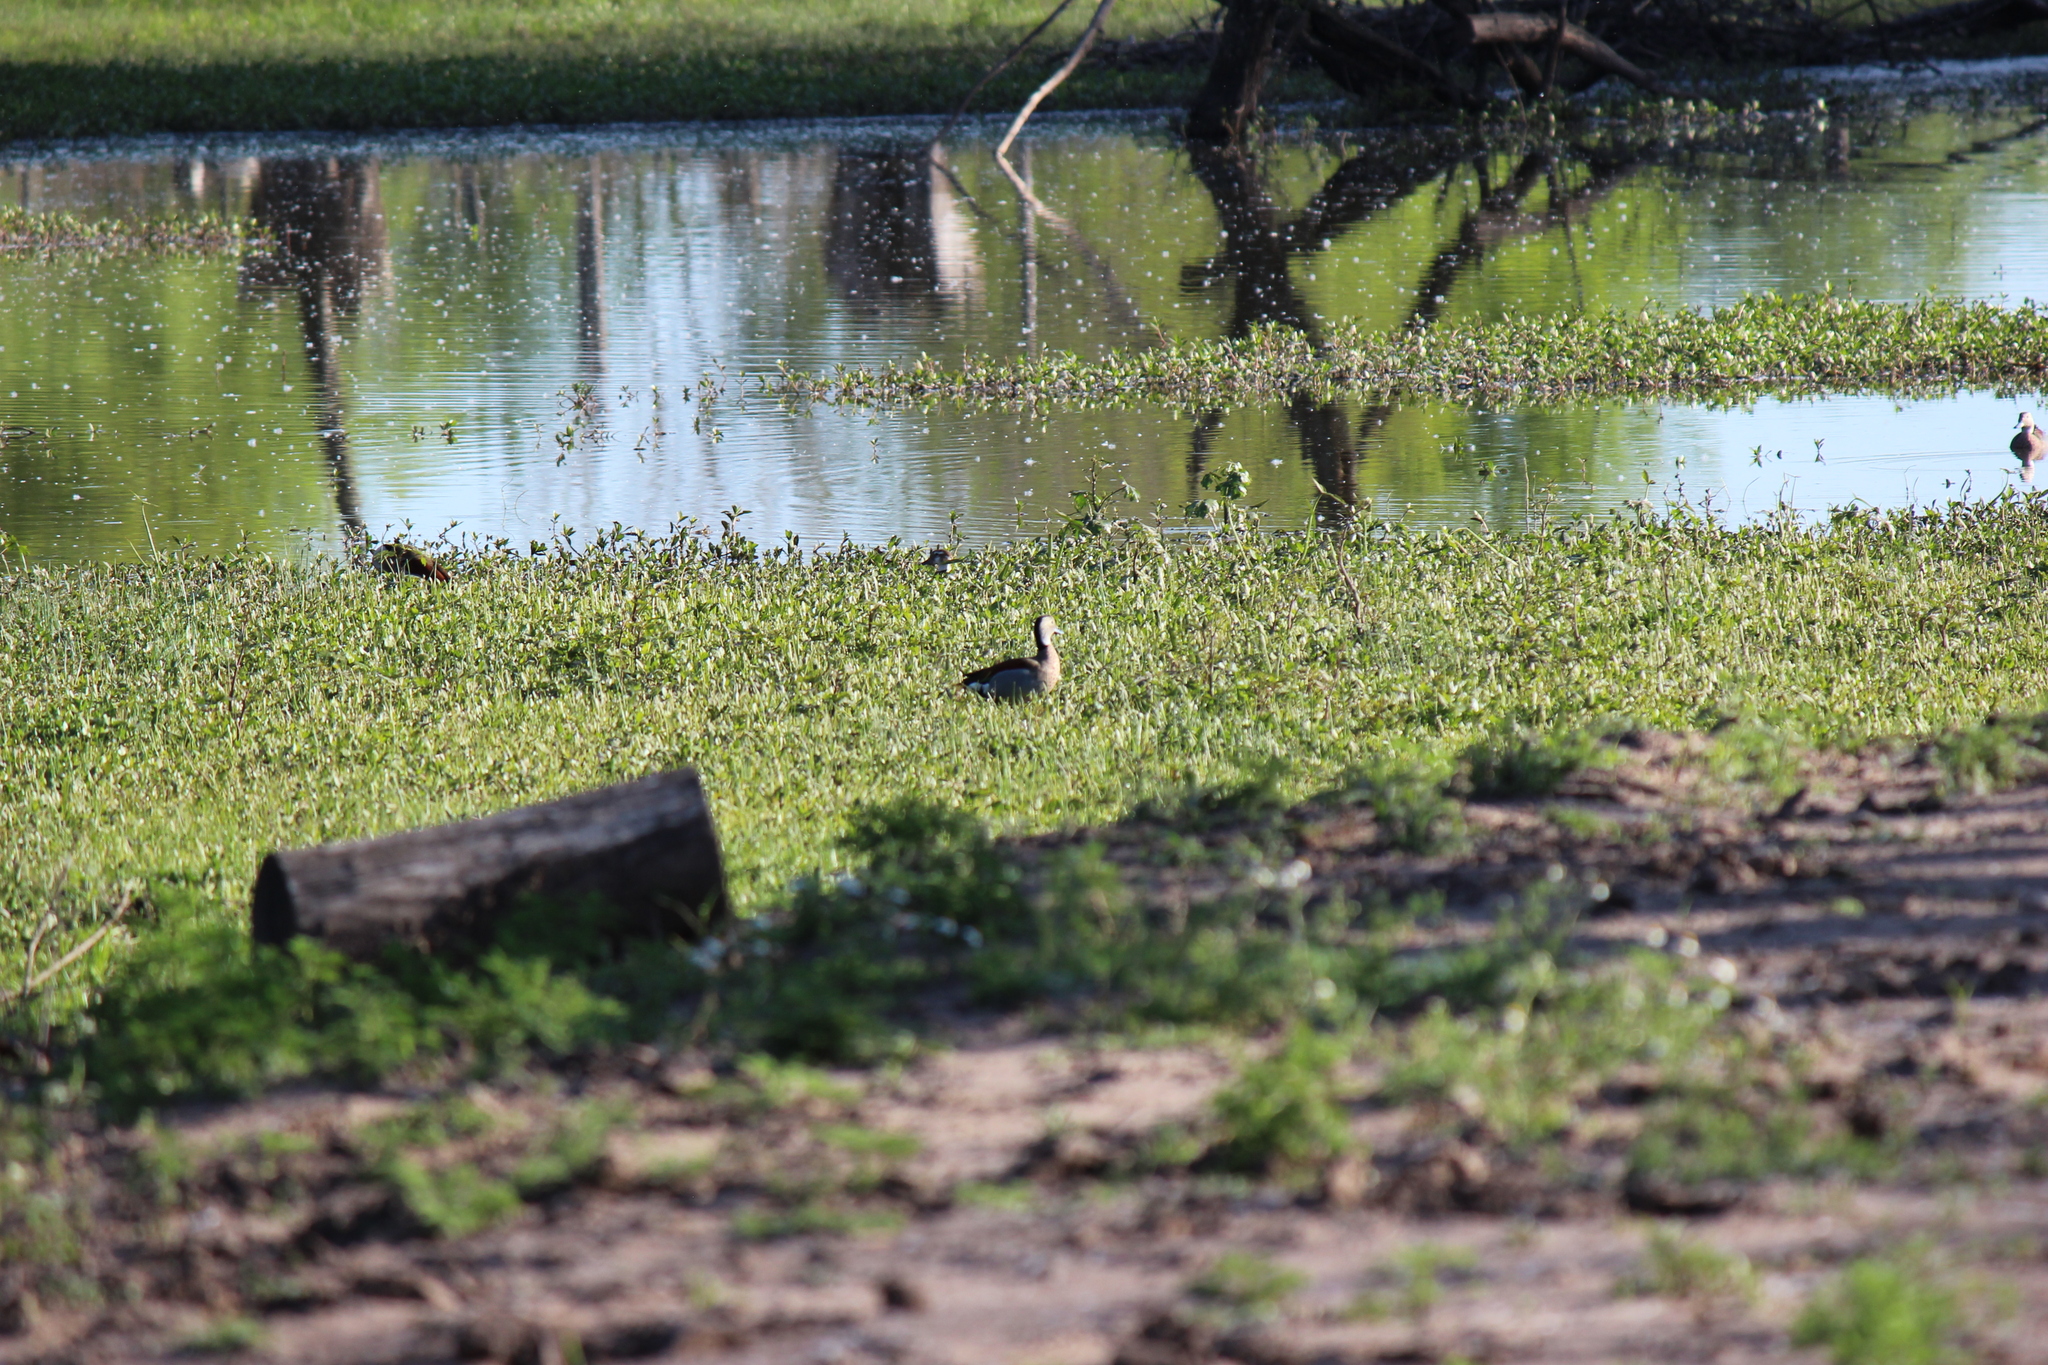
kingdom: Animalia
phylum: Chordata
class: Aves
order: Anseriformes
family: Anatidae
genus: Callonetta
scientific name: Callonetta leucophrys
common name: Ringed teal
